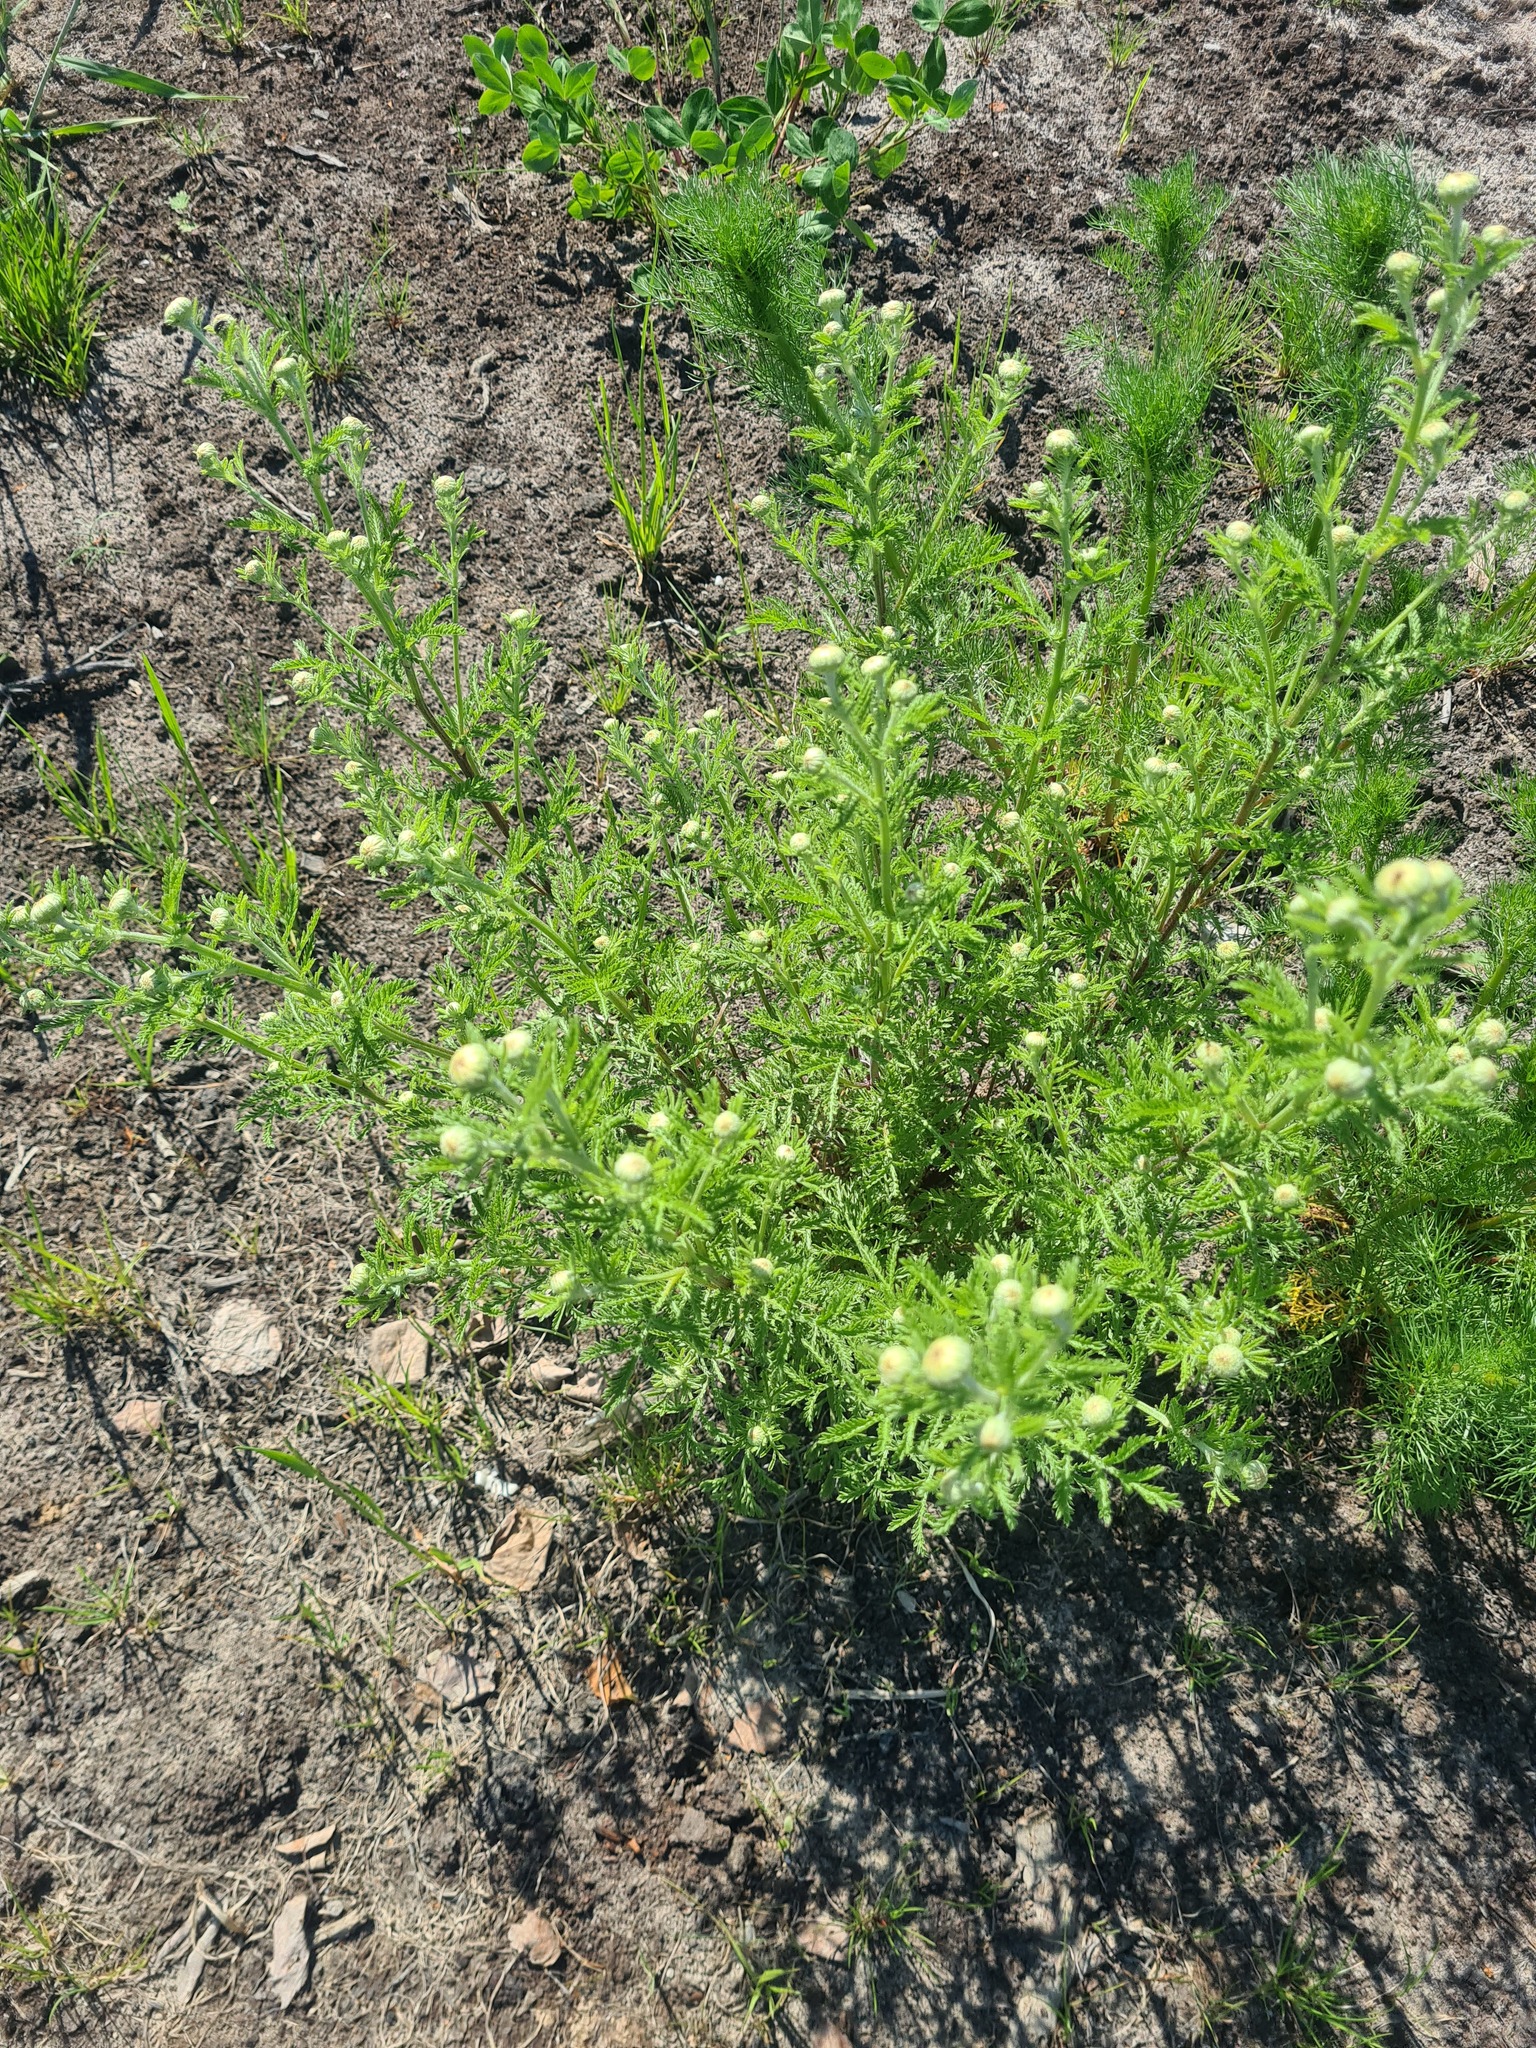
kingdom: Plantae
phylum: Tracheophyta
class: Magnoliopsida
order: Asterales
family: Asteraceae
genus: Cota
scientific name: Cota tinctoria
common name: Golden chamomile
